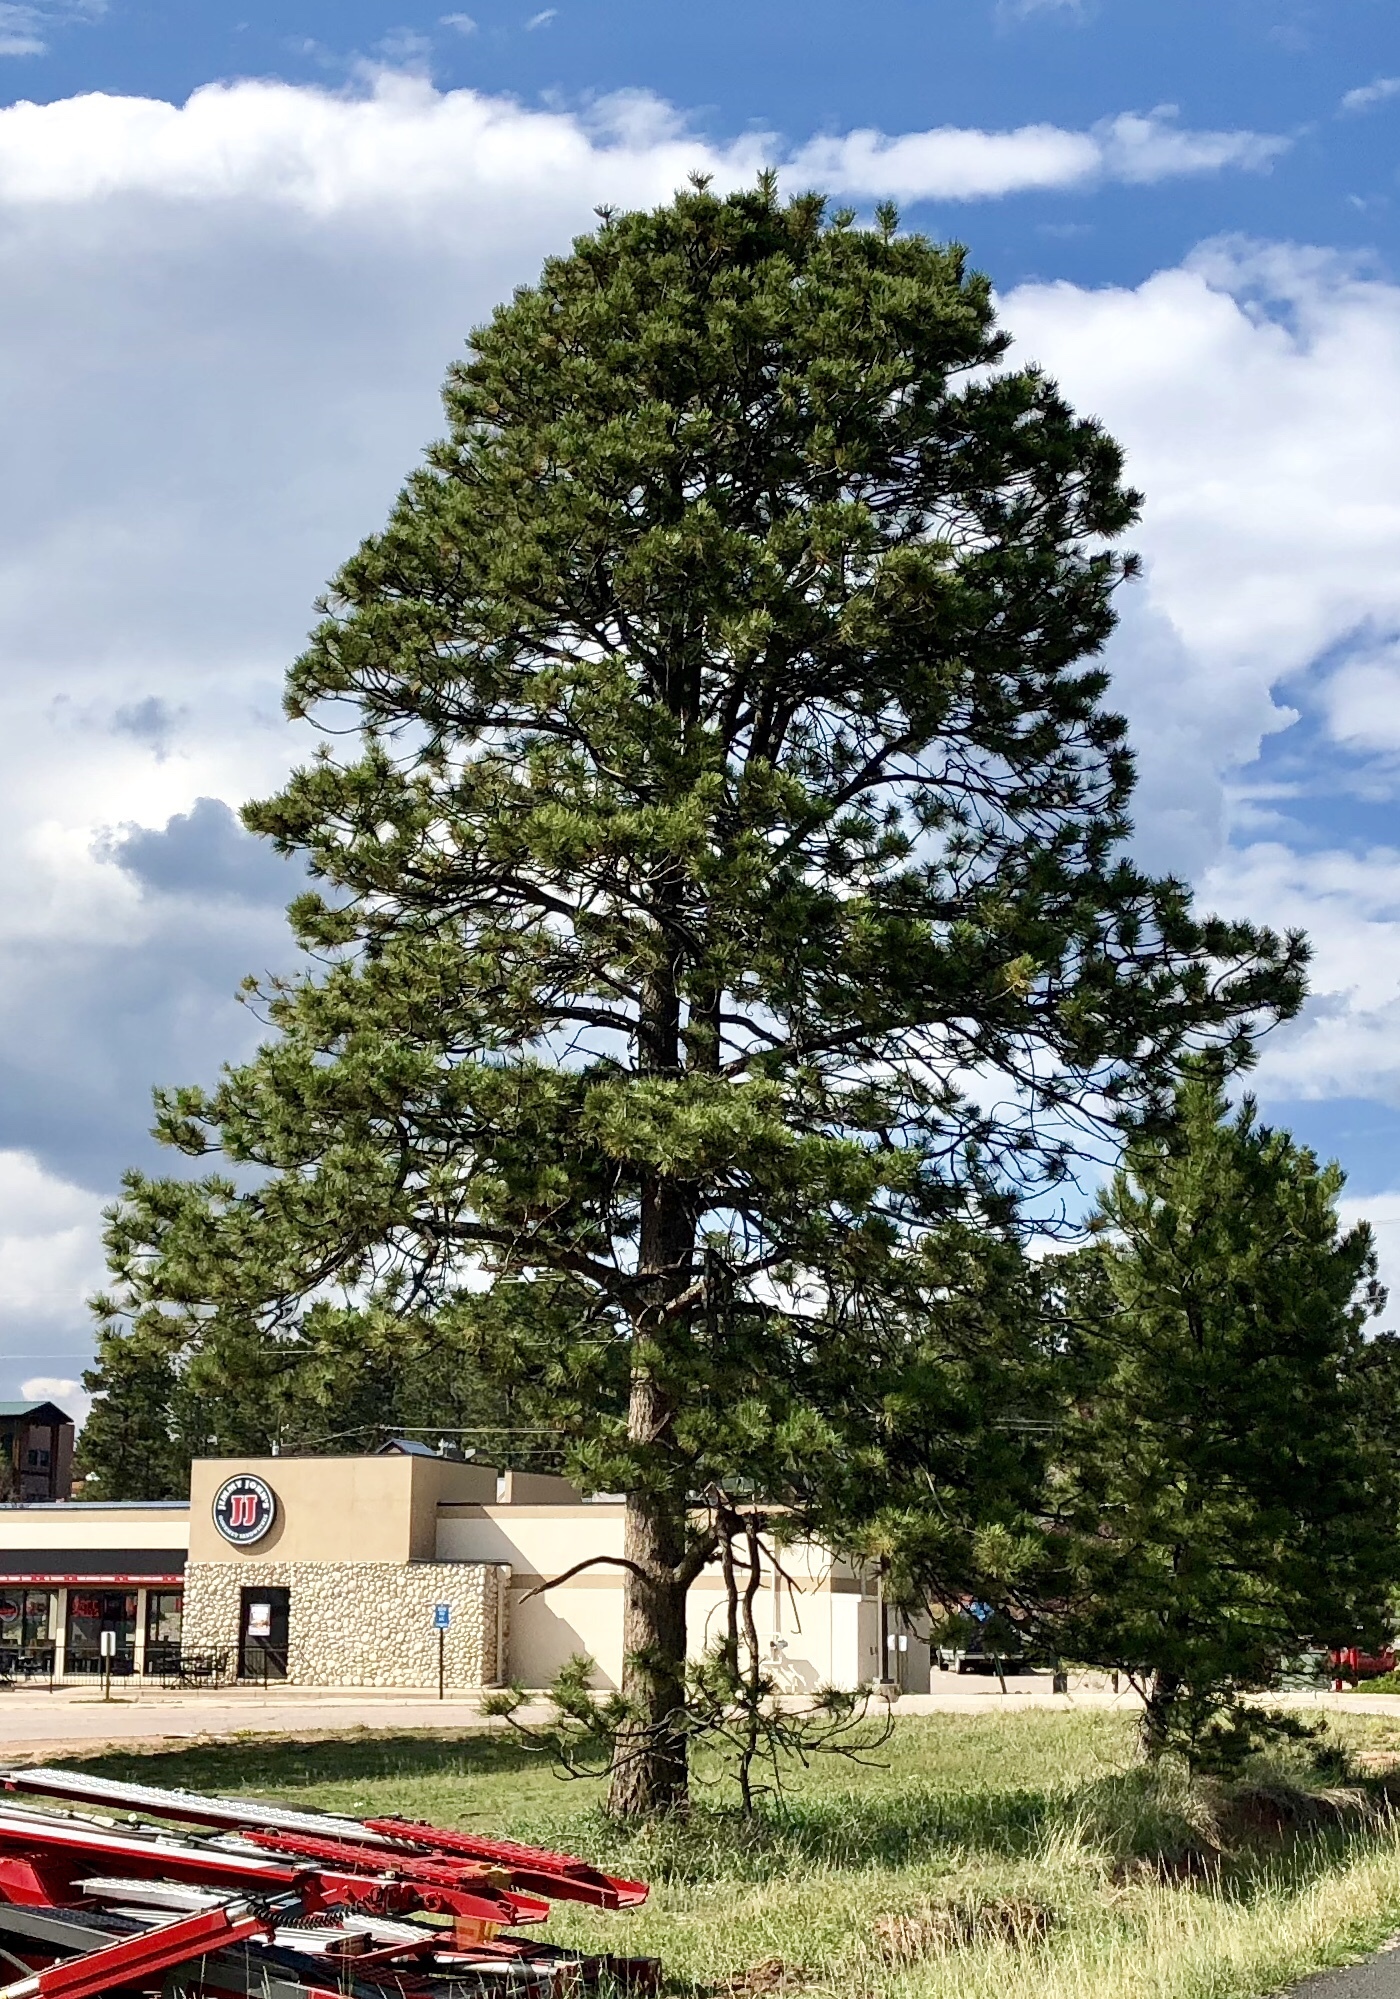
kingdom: Plantae
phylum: Tracheophyta
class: Pinopsida
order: Pinales
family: Pinaceae
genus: Pinus
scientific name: Pinus ponderosa
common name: Western yellow-pine
